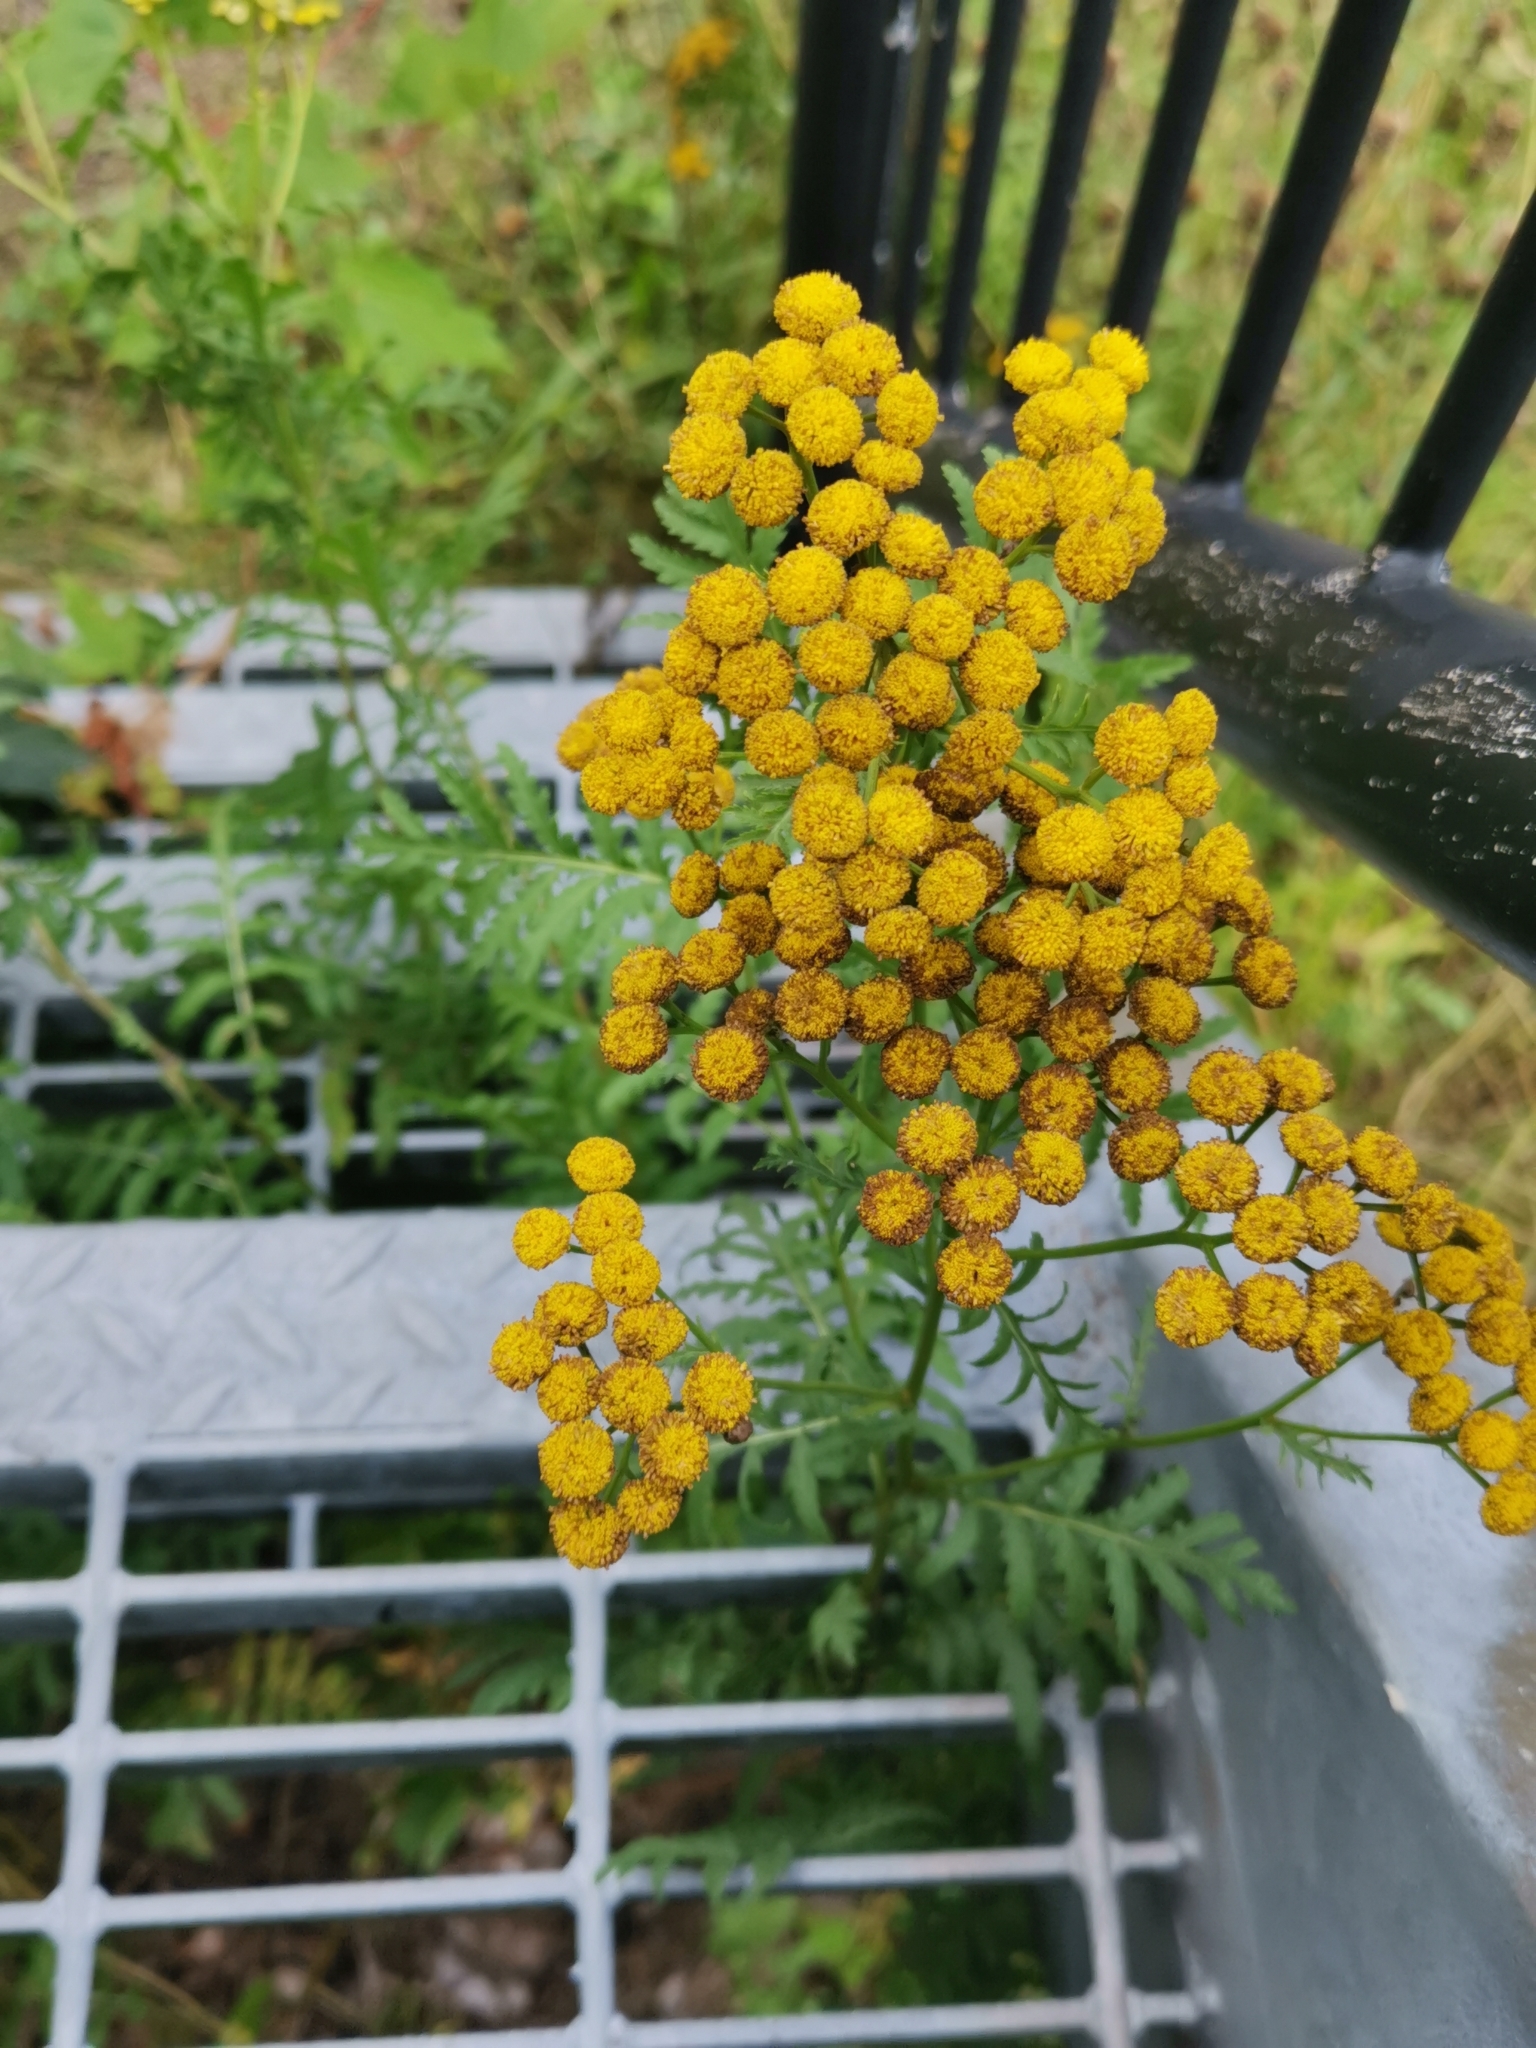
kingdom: Plantae
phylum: Tracheophyta
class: Magnoliopsida
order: Asterales
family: Asteraceae
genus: Tanacetum
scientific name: Tanacetum vulgare
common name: Common tansy
